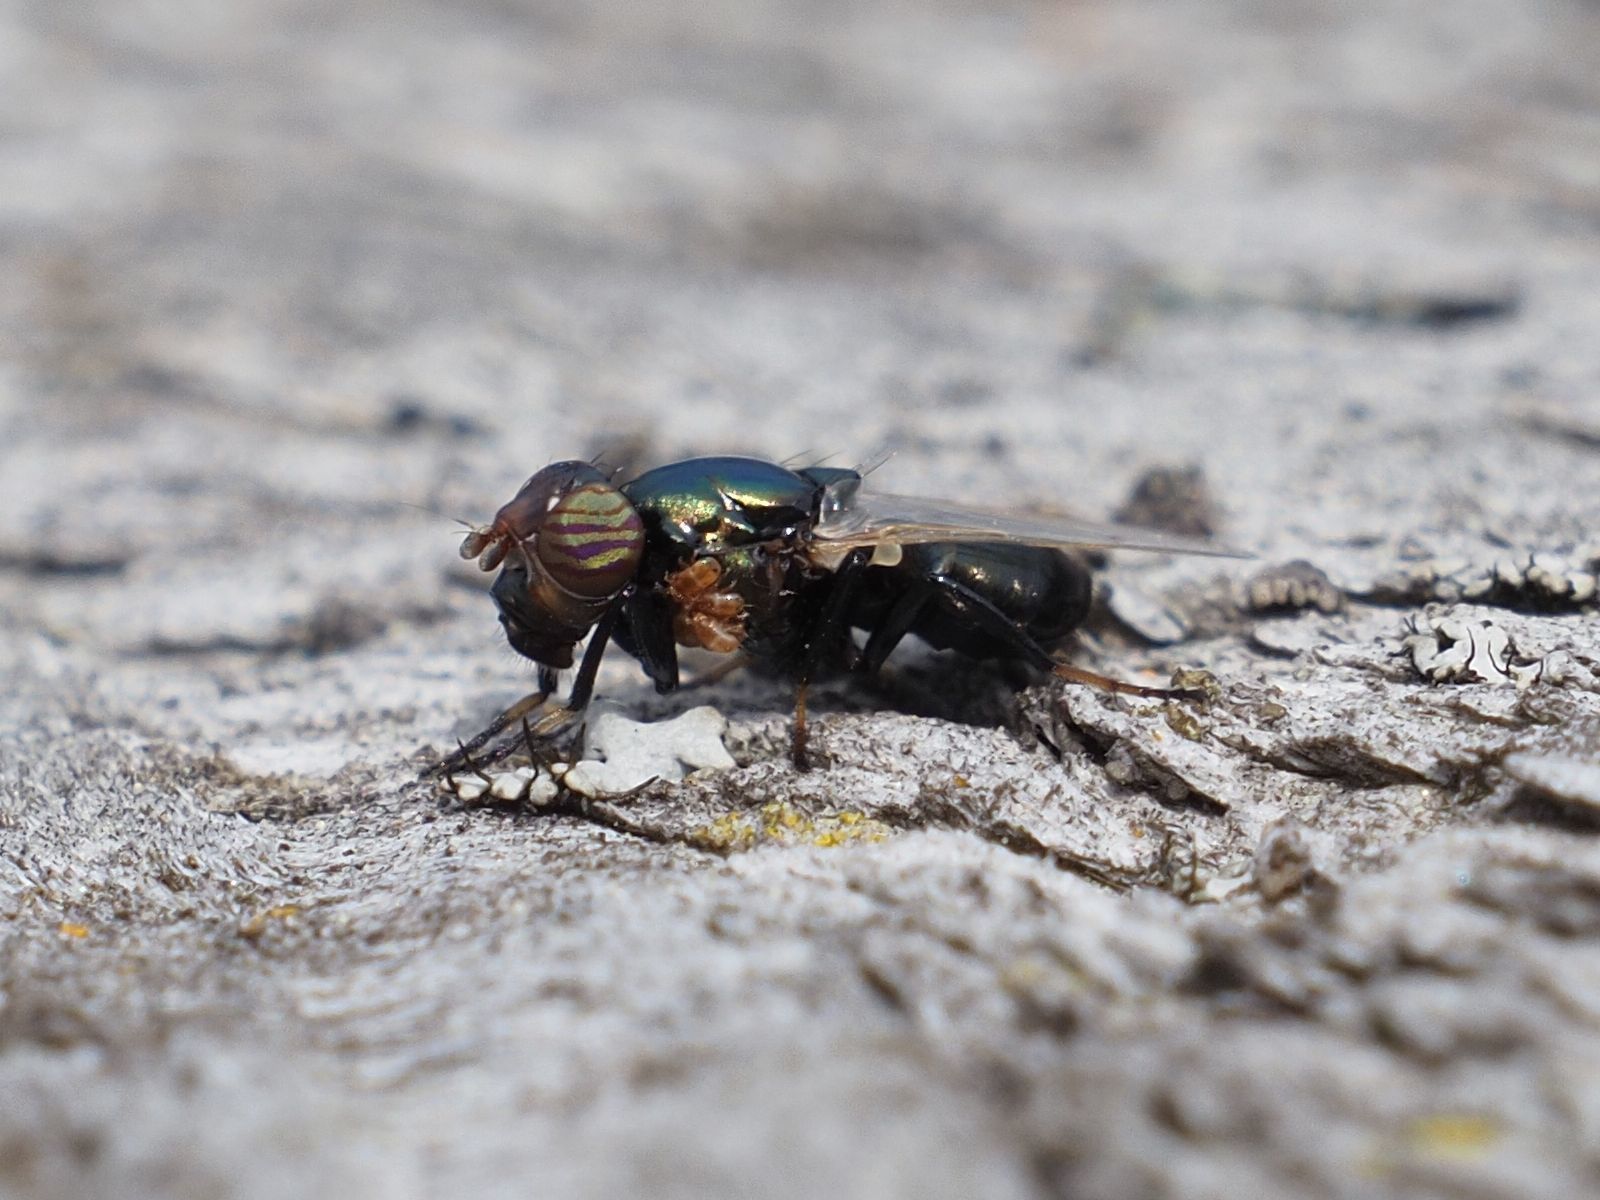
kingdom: Animalia
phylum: Arthropoda
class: Insecta
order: Diptera
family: Ulidiidae
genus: Physiphora
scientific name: Physiphora alceae
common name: Picture-winged fly
